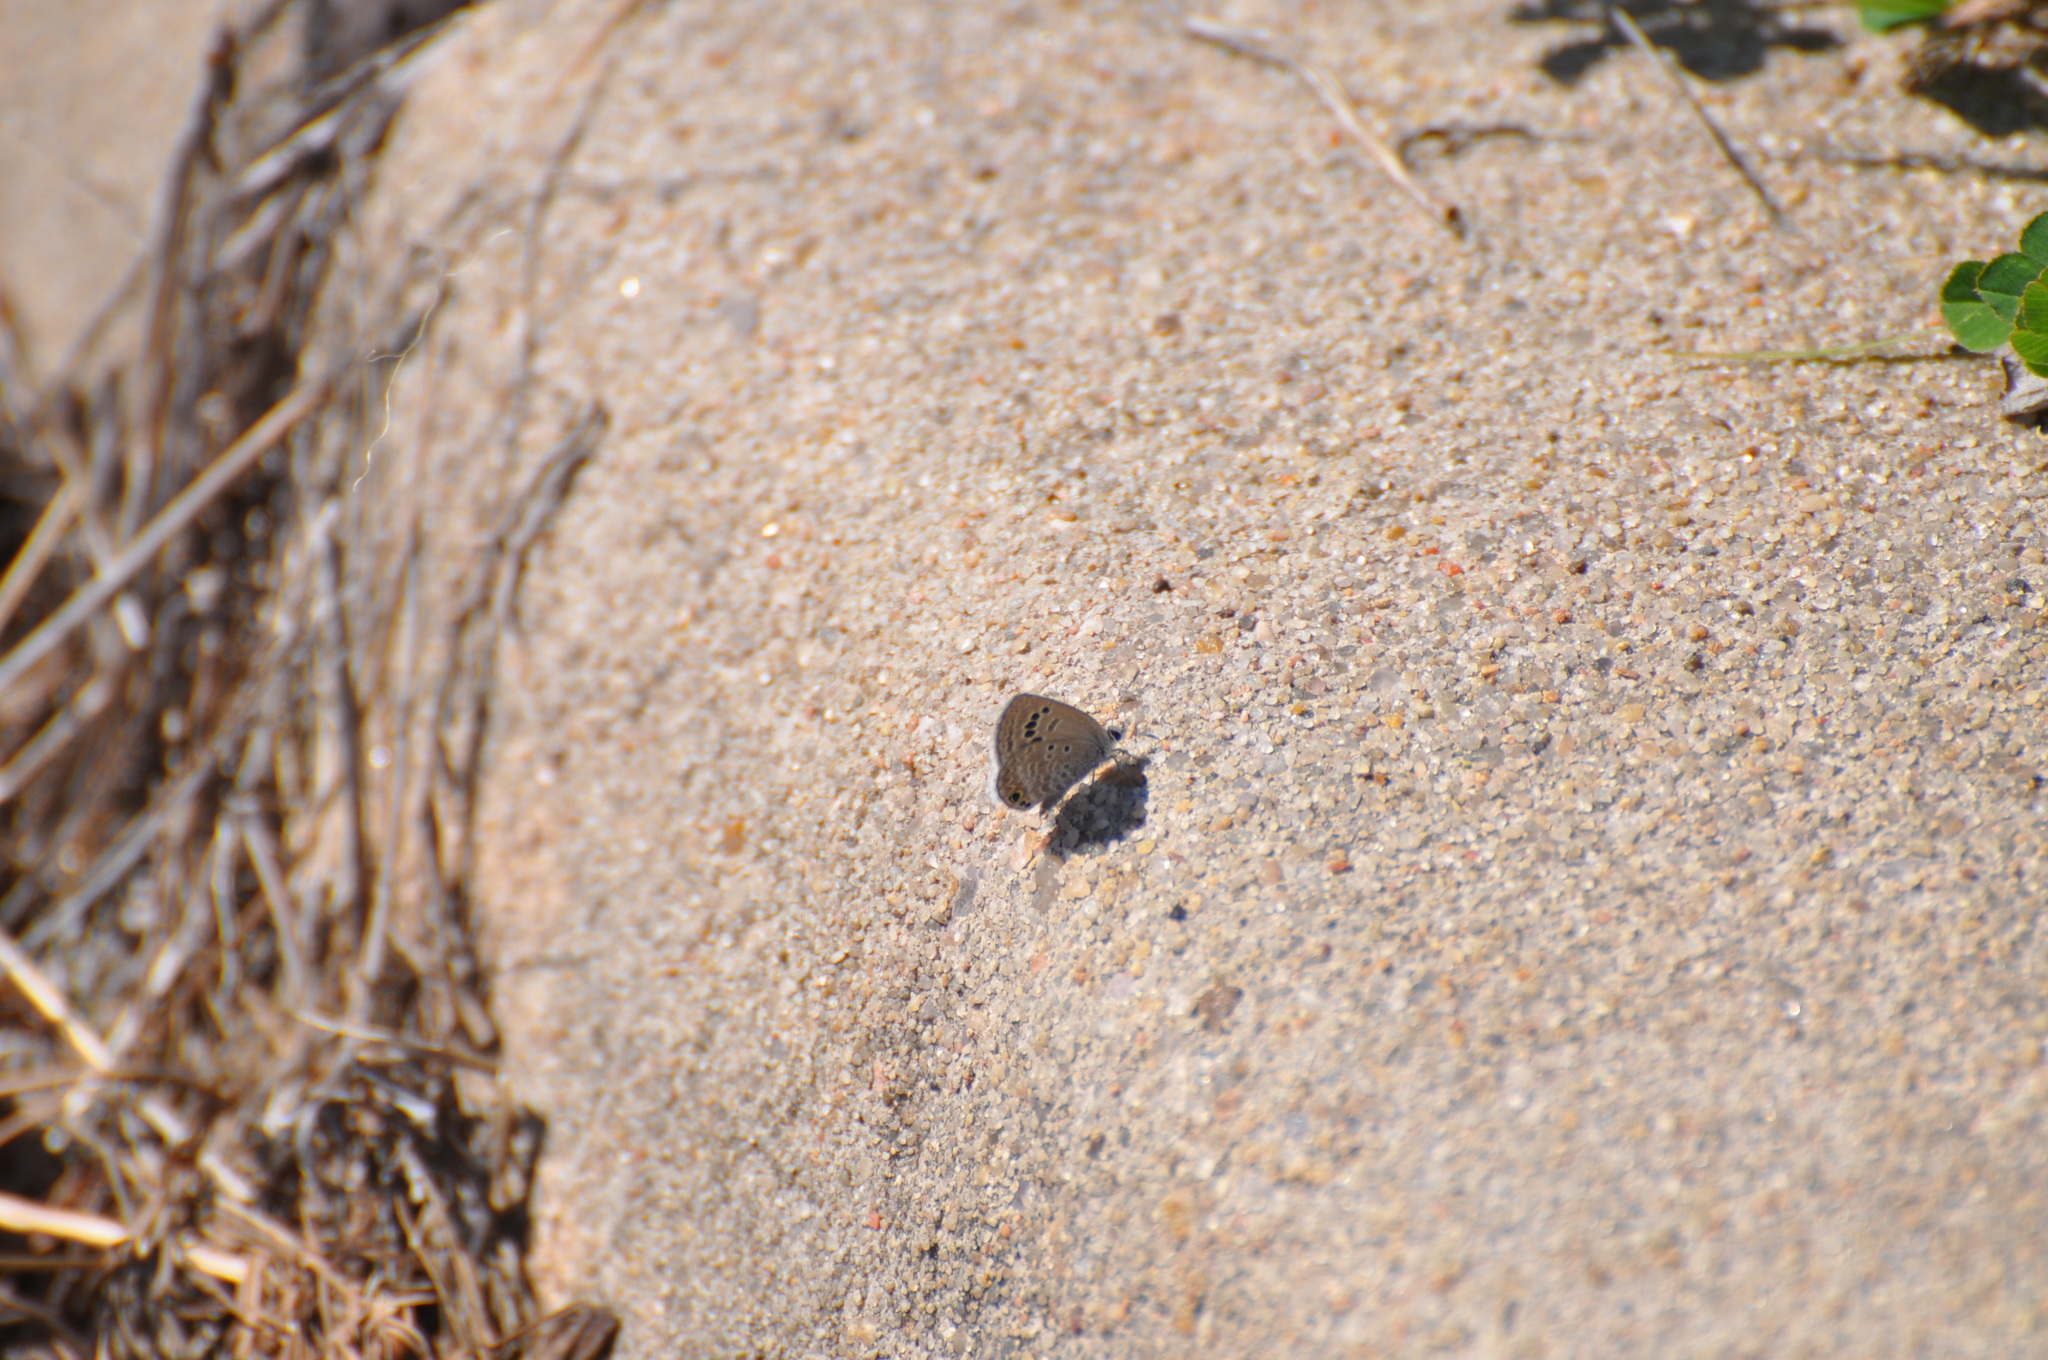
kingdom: Animalia
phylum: Arthropoda
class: Insecta
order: Lepidoptera
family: Lycaenidae
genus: Echinargus
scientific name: Echinargus isola
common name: Reakirt's blue
